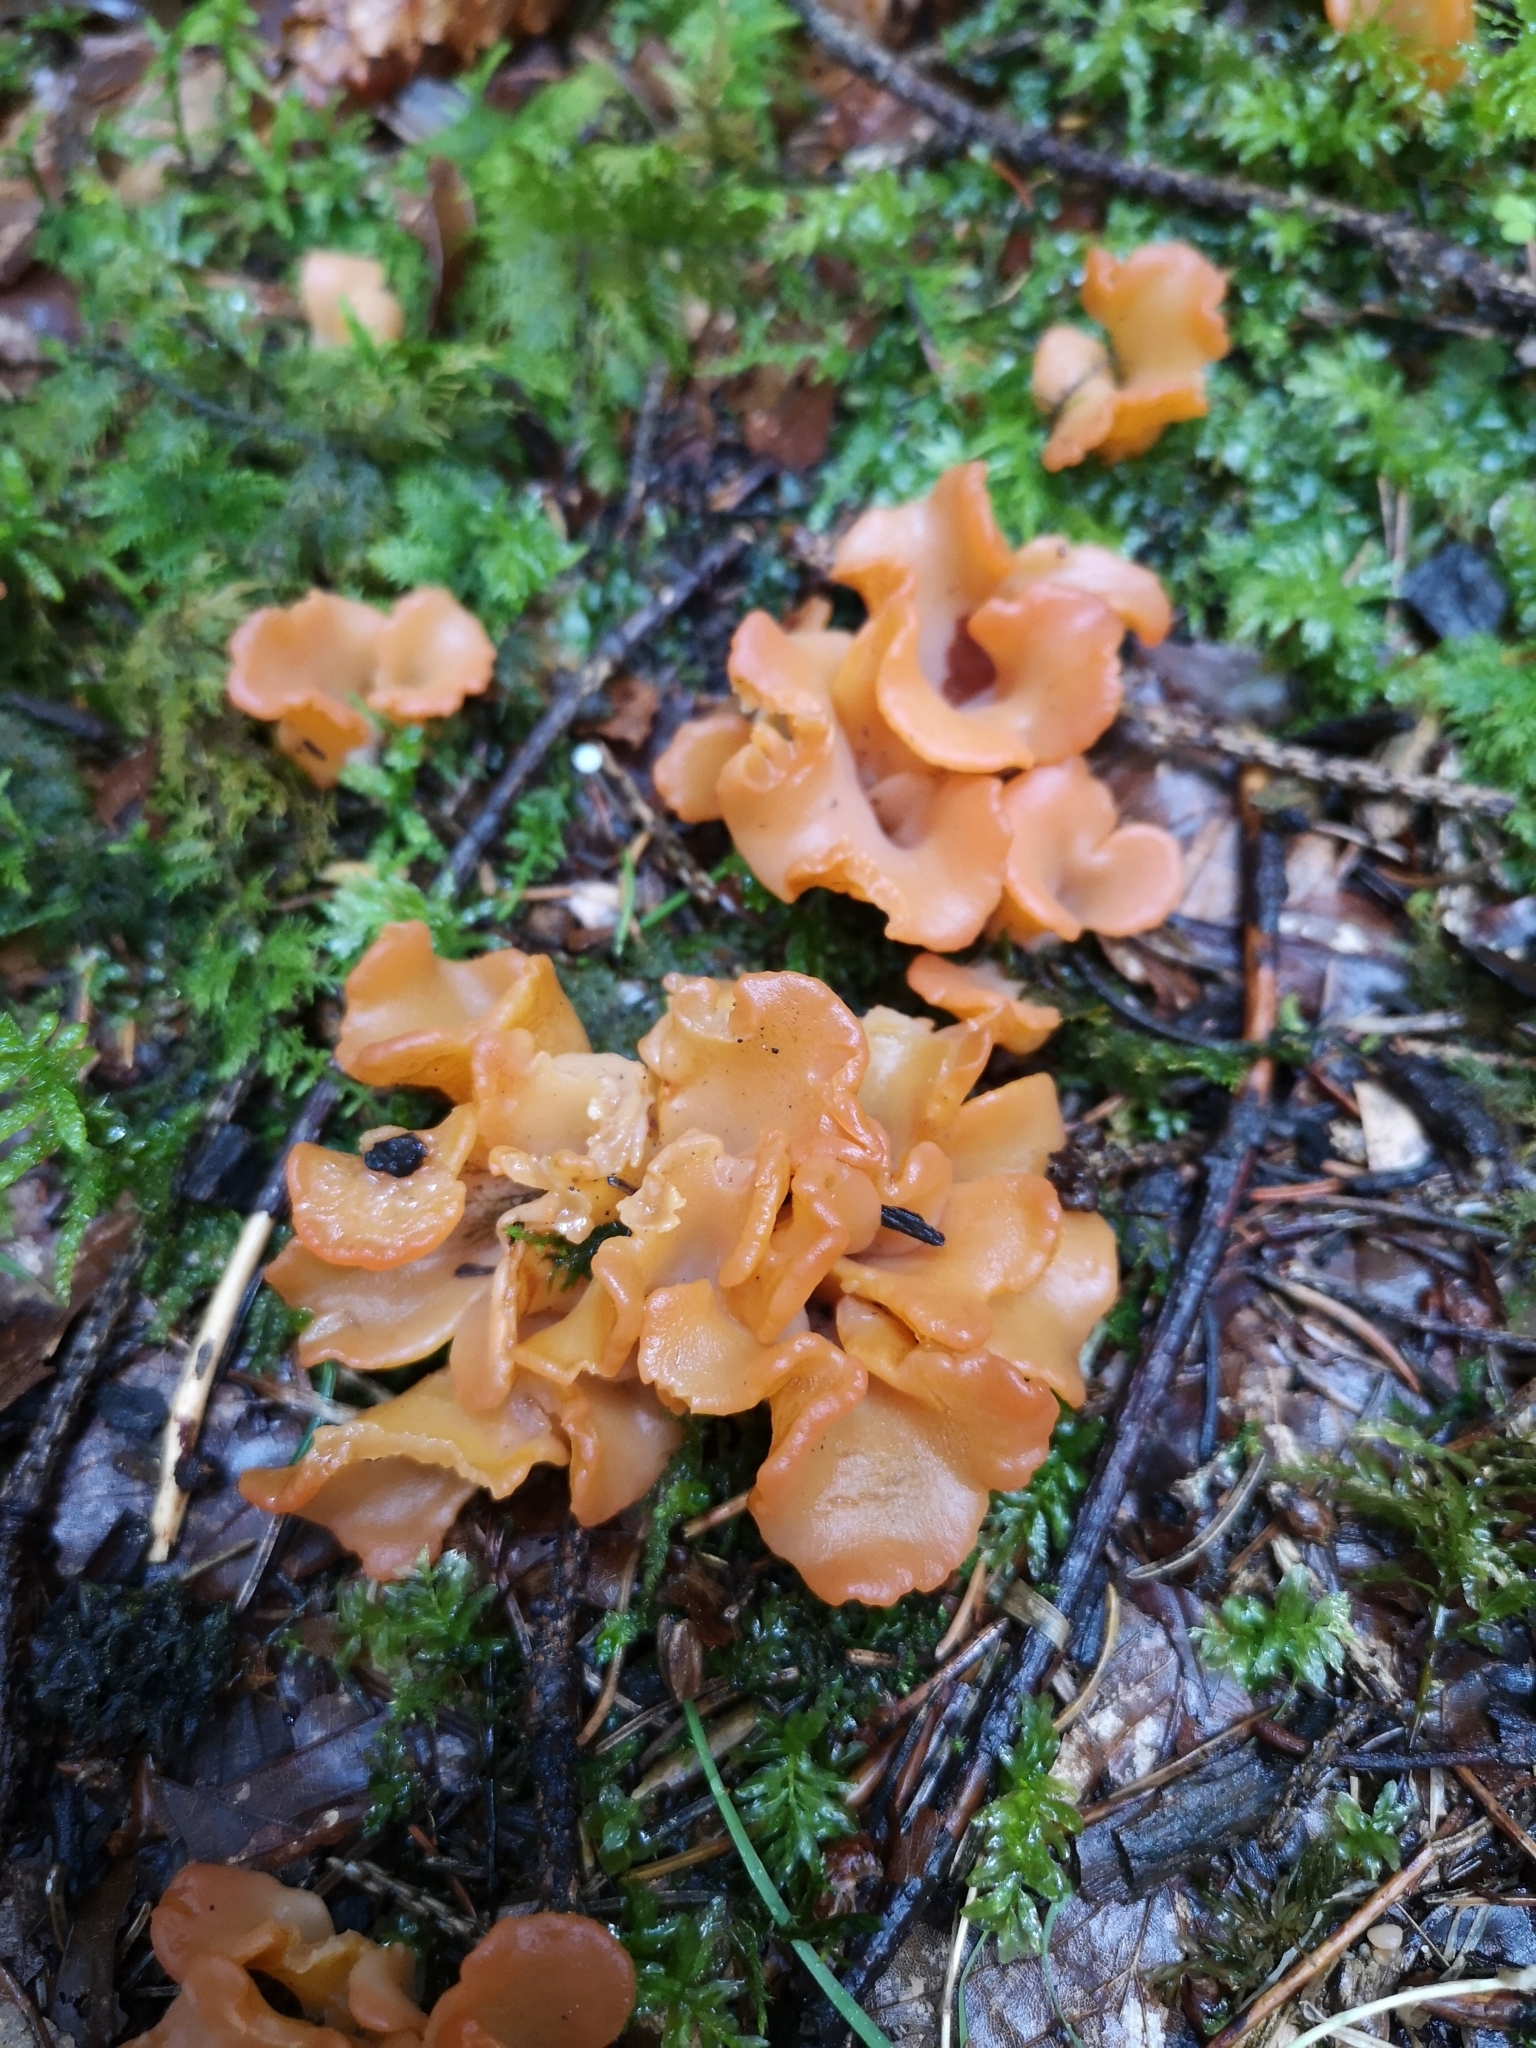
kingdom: Fungi
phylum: Basidiomycota
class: Agaricomycetes
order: Auriculariales
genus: Guepinia
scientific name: Guepinia helvelloides
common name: Salmon salad
